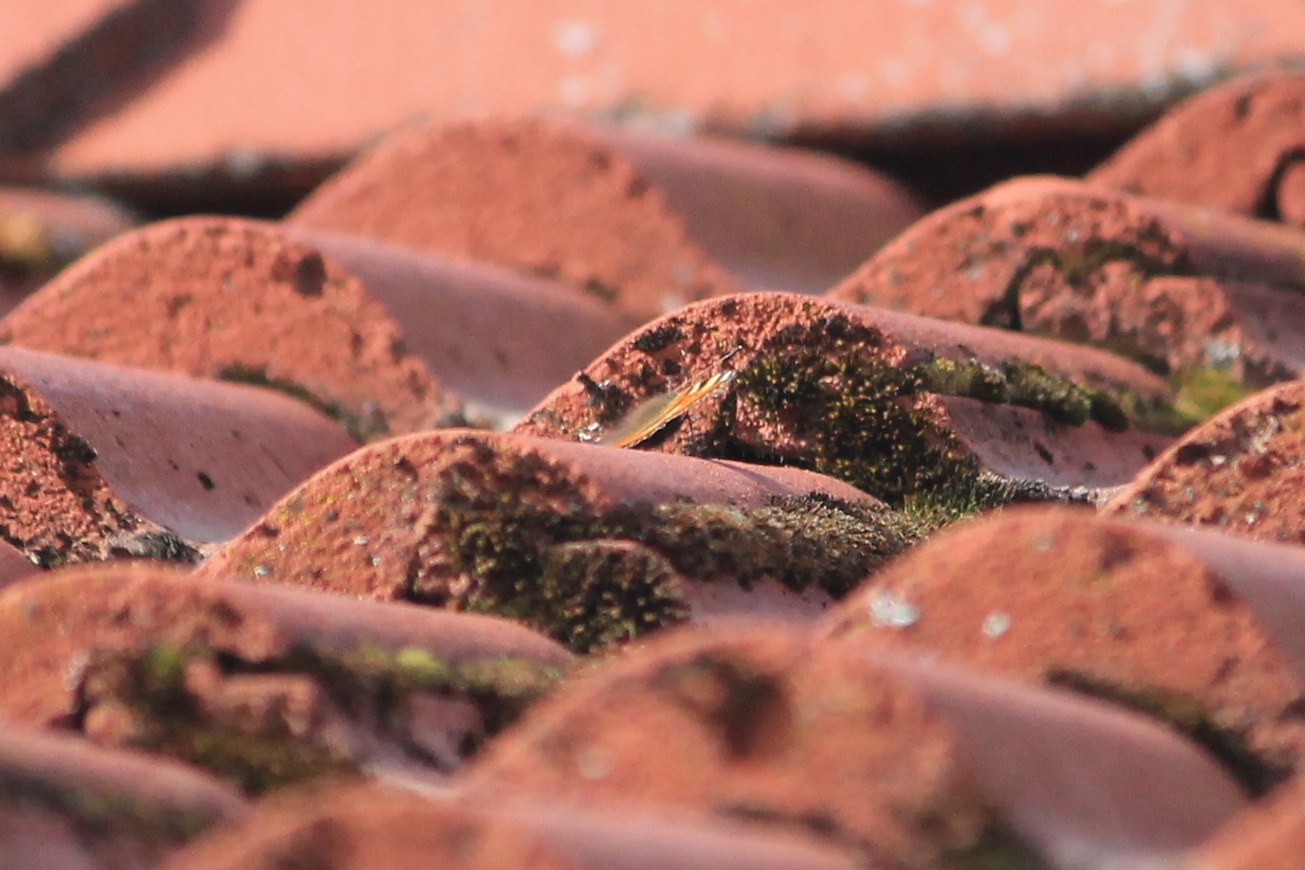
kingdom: Animalia
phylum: Arthropoda
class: Insecta
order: Lepidoptera
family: Nymphalidae
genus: Aglais
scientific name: Aglais urticae
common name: Small tortoiseshell
